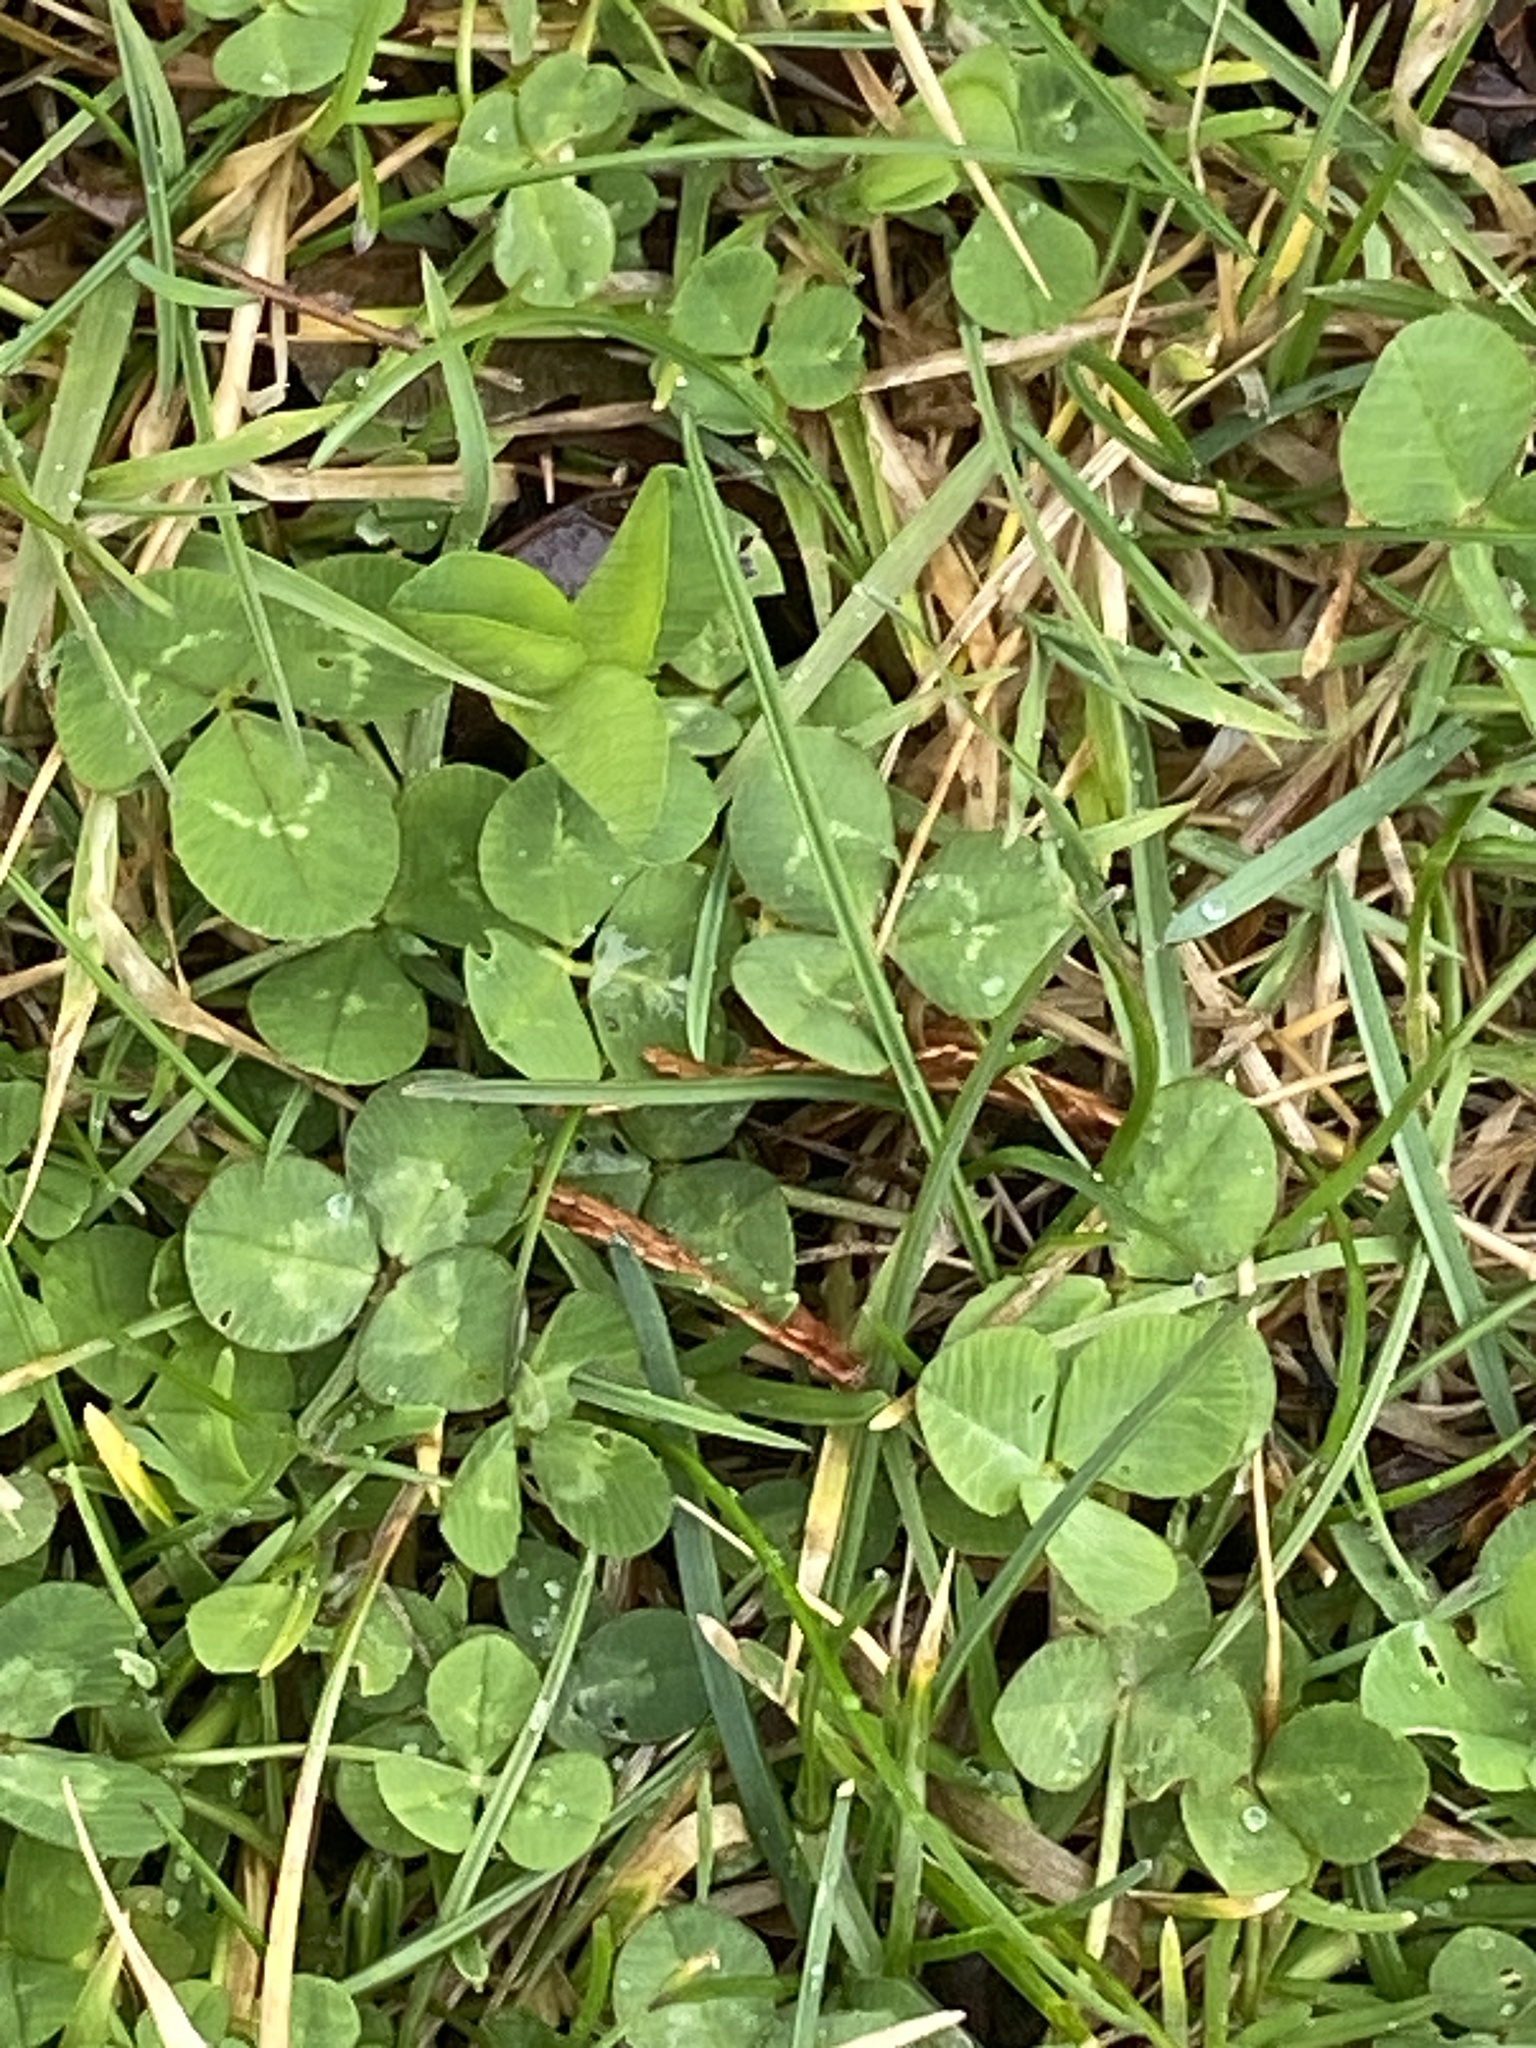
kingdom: Plantae
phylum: Tracheophyta
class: Magnoliopsida
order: Fabales
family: Fabaceae
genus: Trifolium
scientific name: Trifolium repens
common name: White clover
